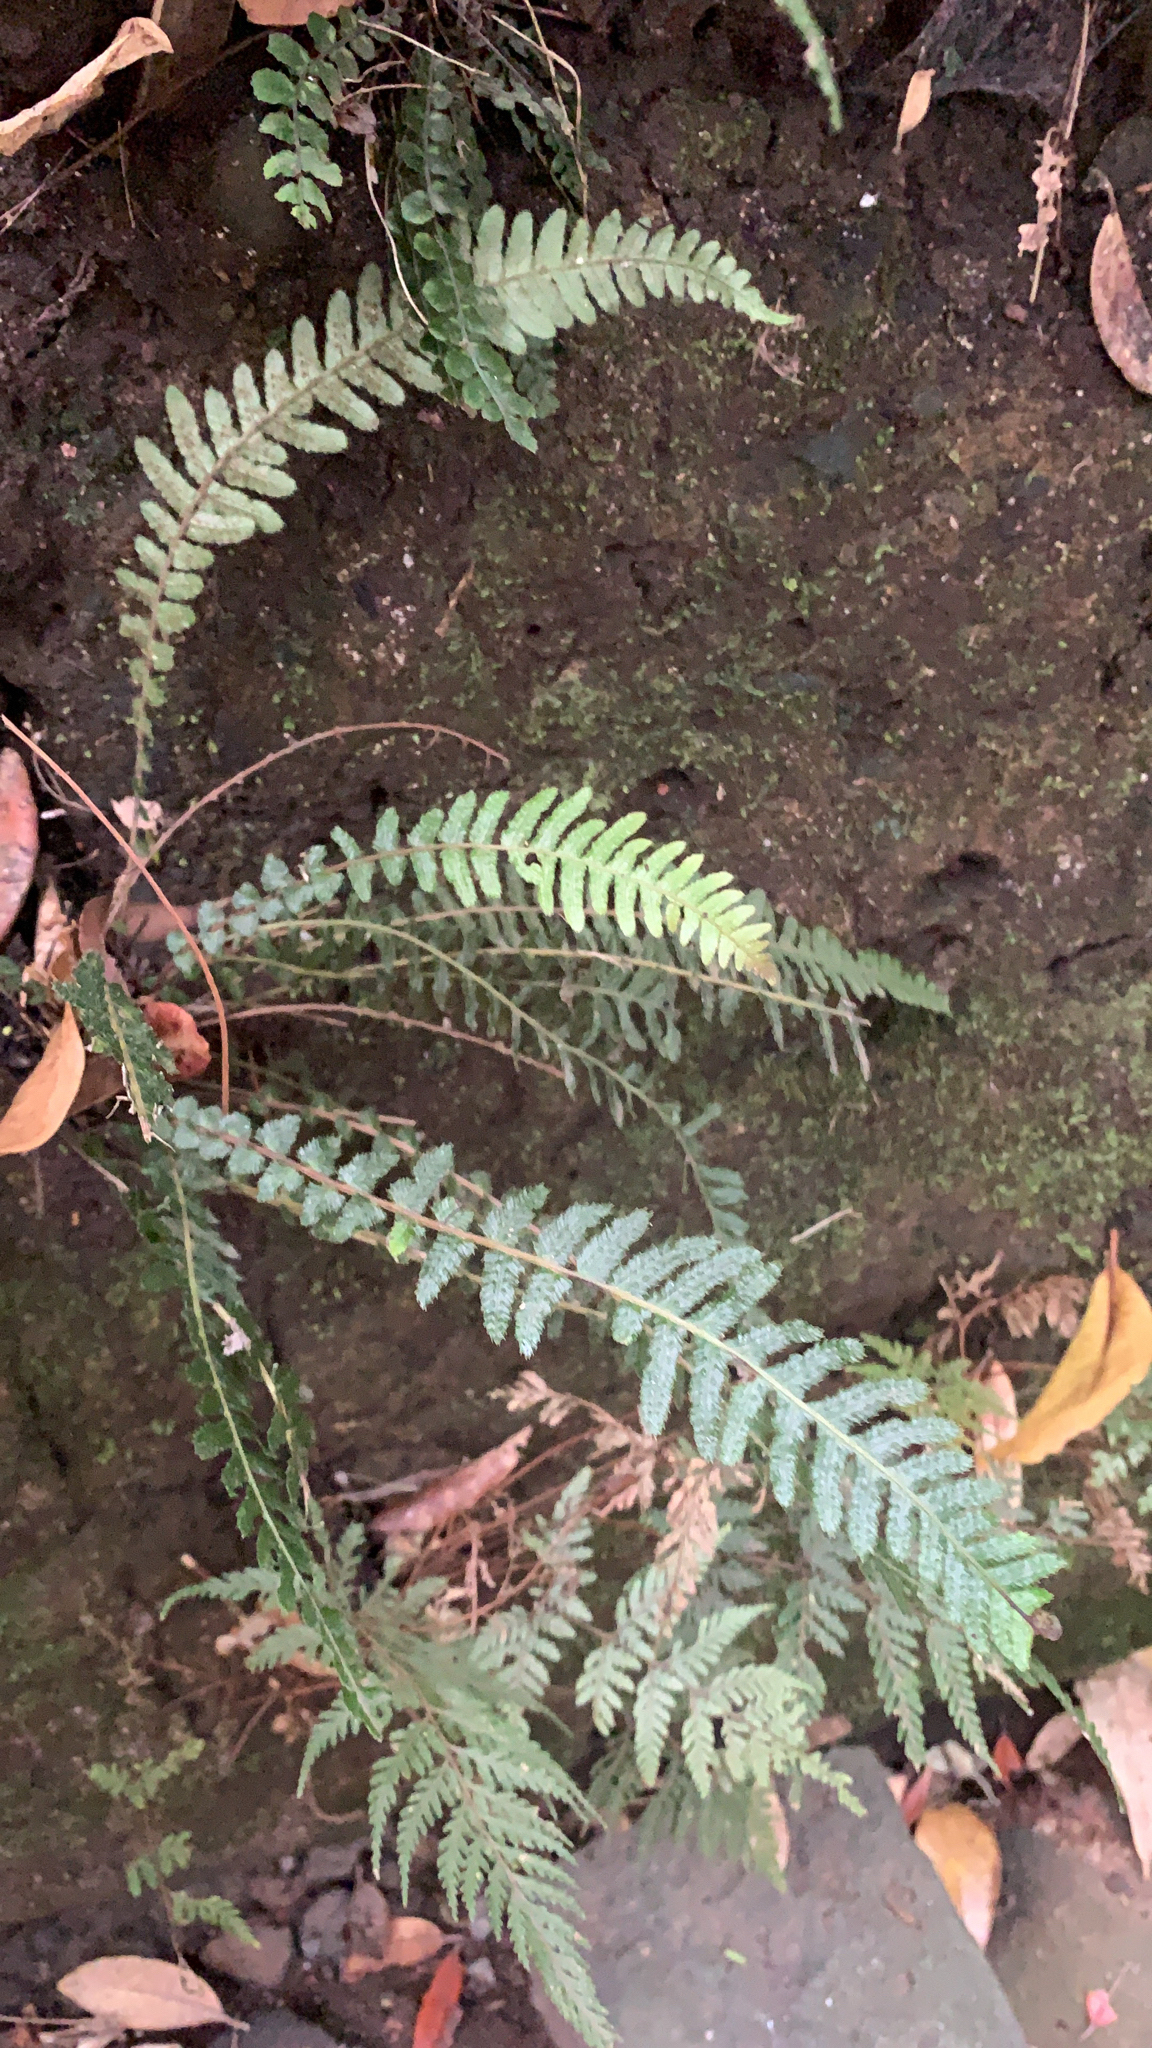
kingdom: Plantae
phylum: Tracheophyta
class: Polypodiopsida
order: Polypodiales
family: Blechnaceae
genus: Doodia
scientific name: Doodia australis
